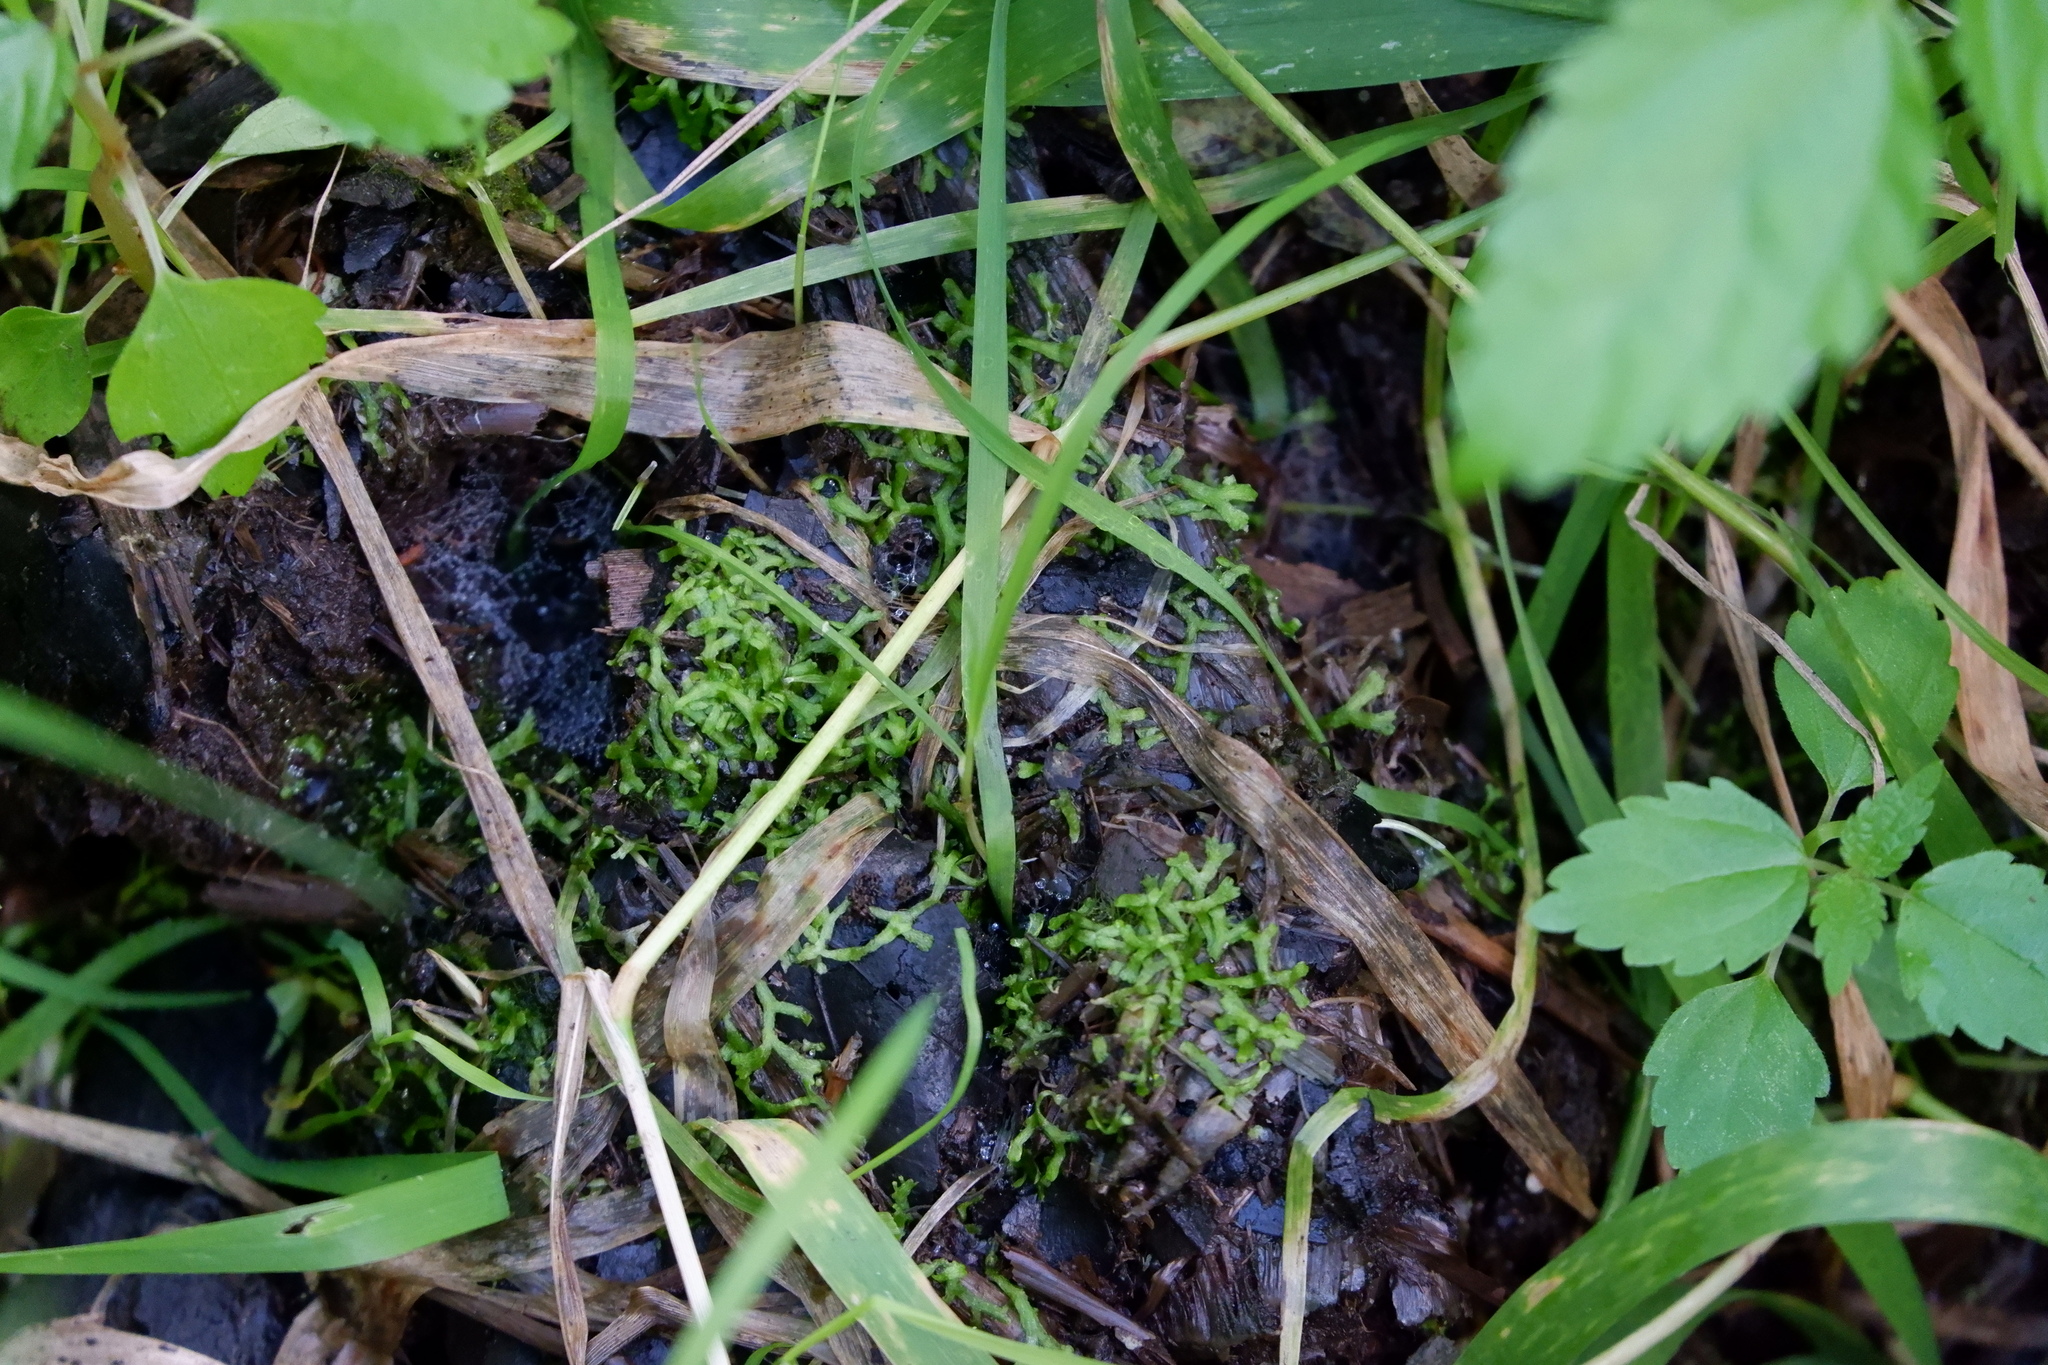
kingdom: Plantae
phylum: Marchantiophyta
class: Marchantiopsida
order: Marchantiales
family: Ricciaceae
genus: Riccia
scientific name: Riccia fluitans
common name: Floating crystalwort
